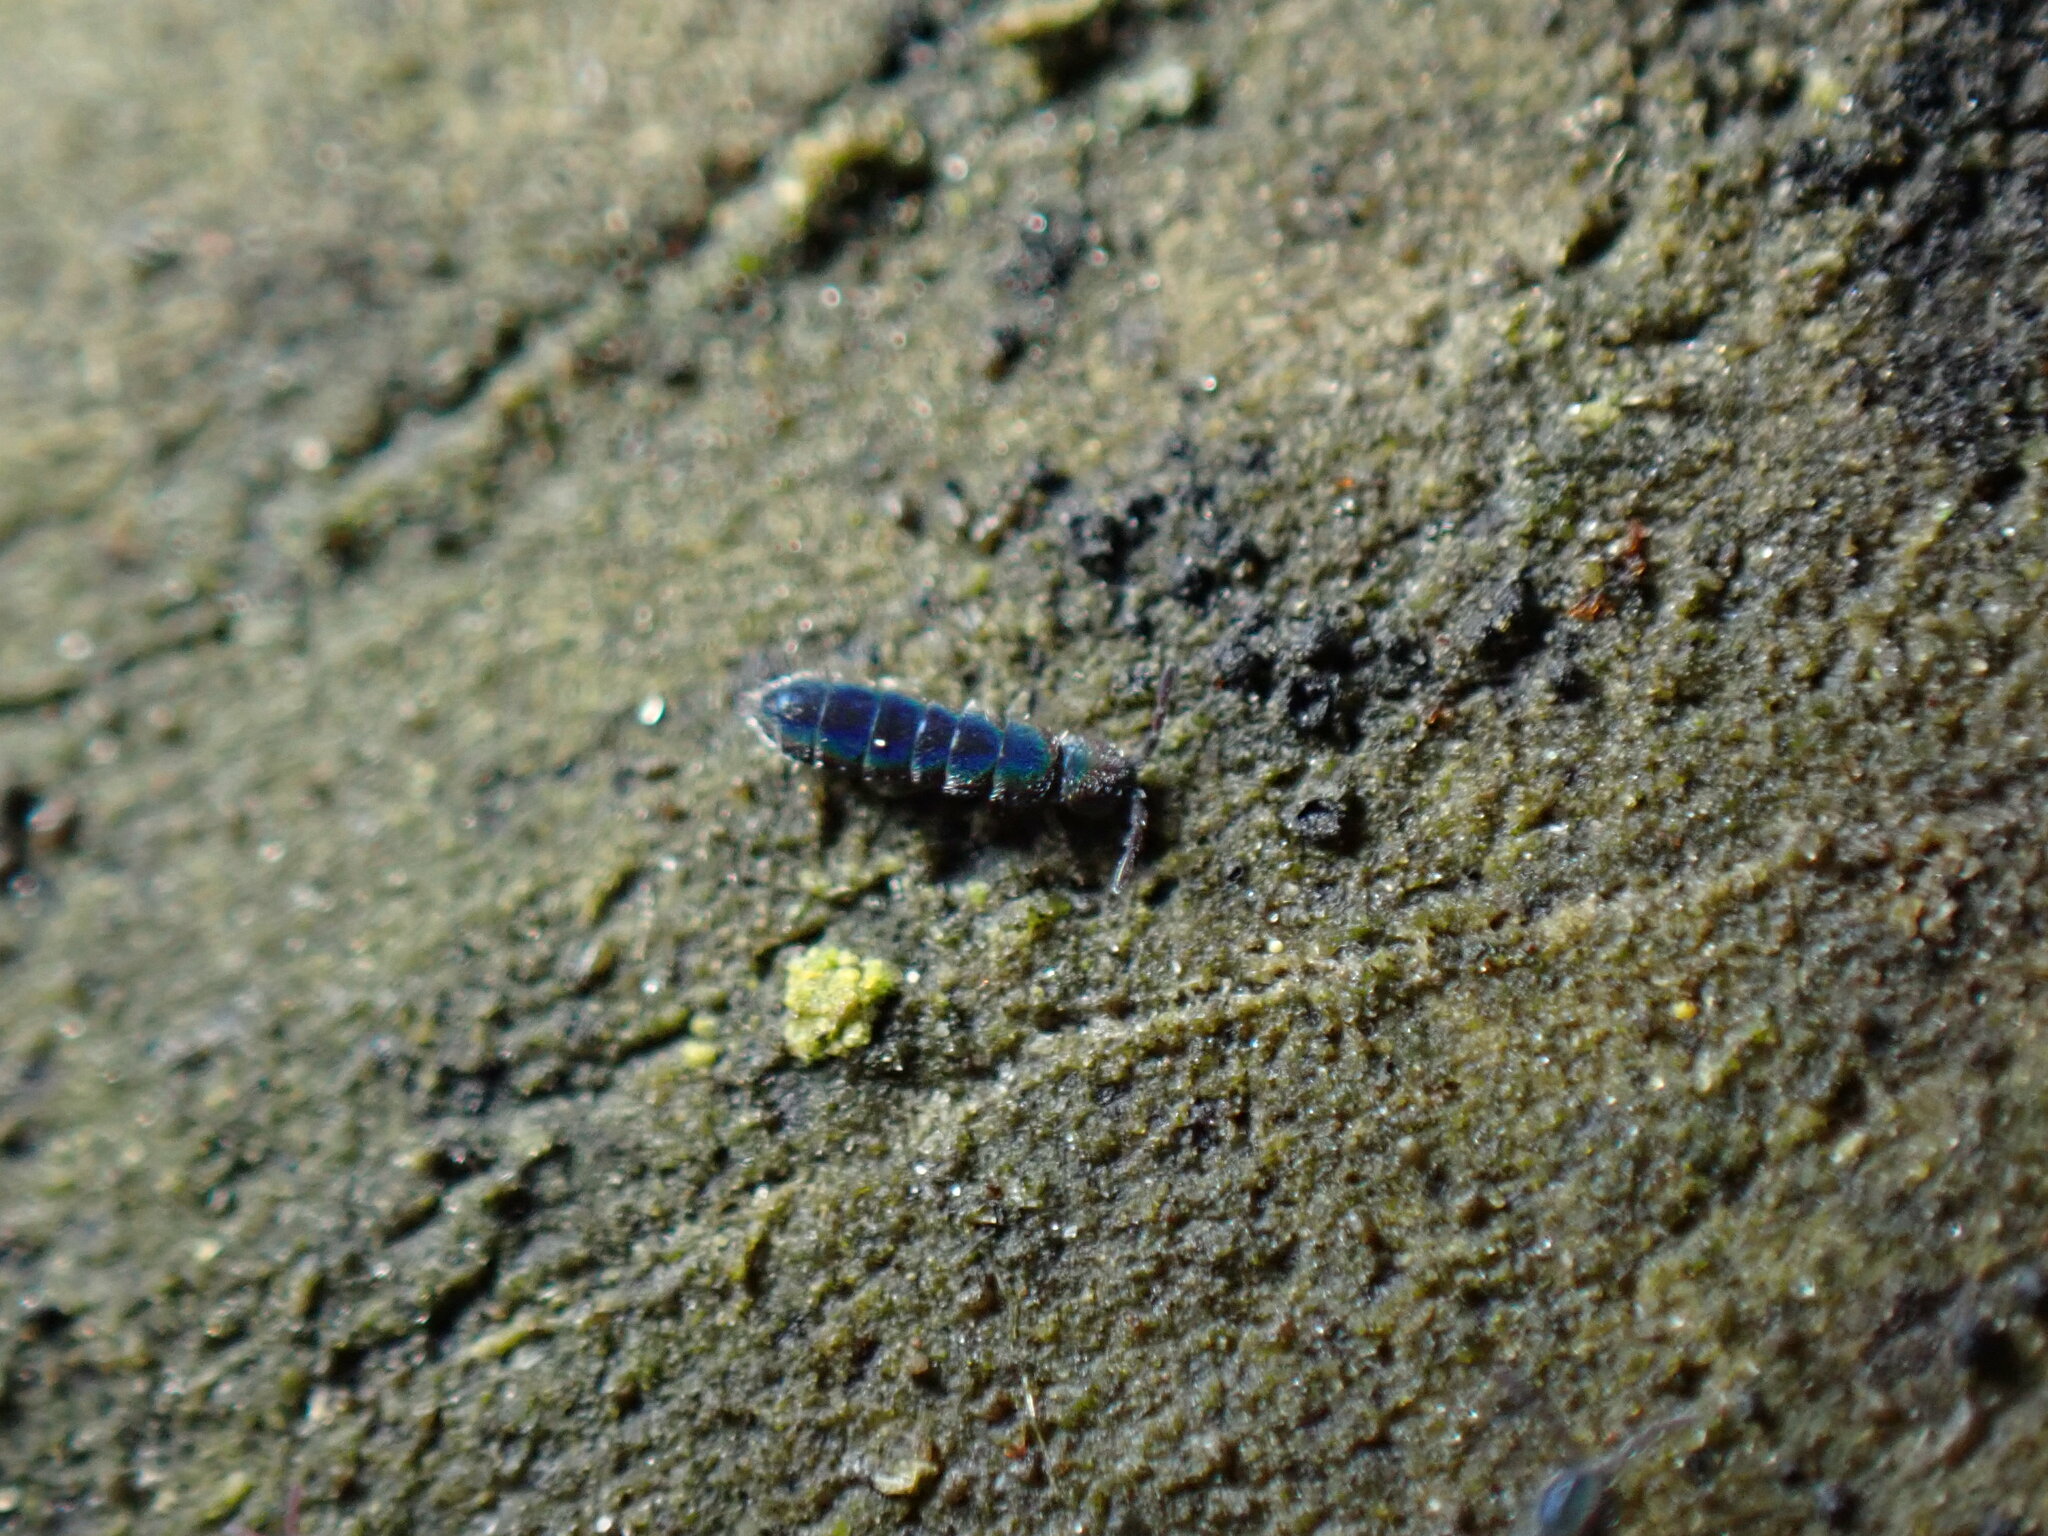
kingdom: Animalia
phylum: Arthropoda
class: Collembola
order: Entomobryomorpha
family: Isotomidae
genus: Vertagopus
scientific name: Vertagopus asiaticus
